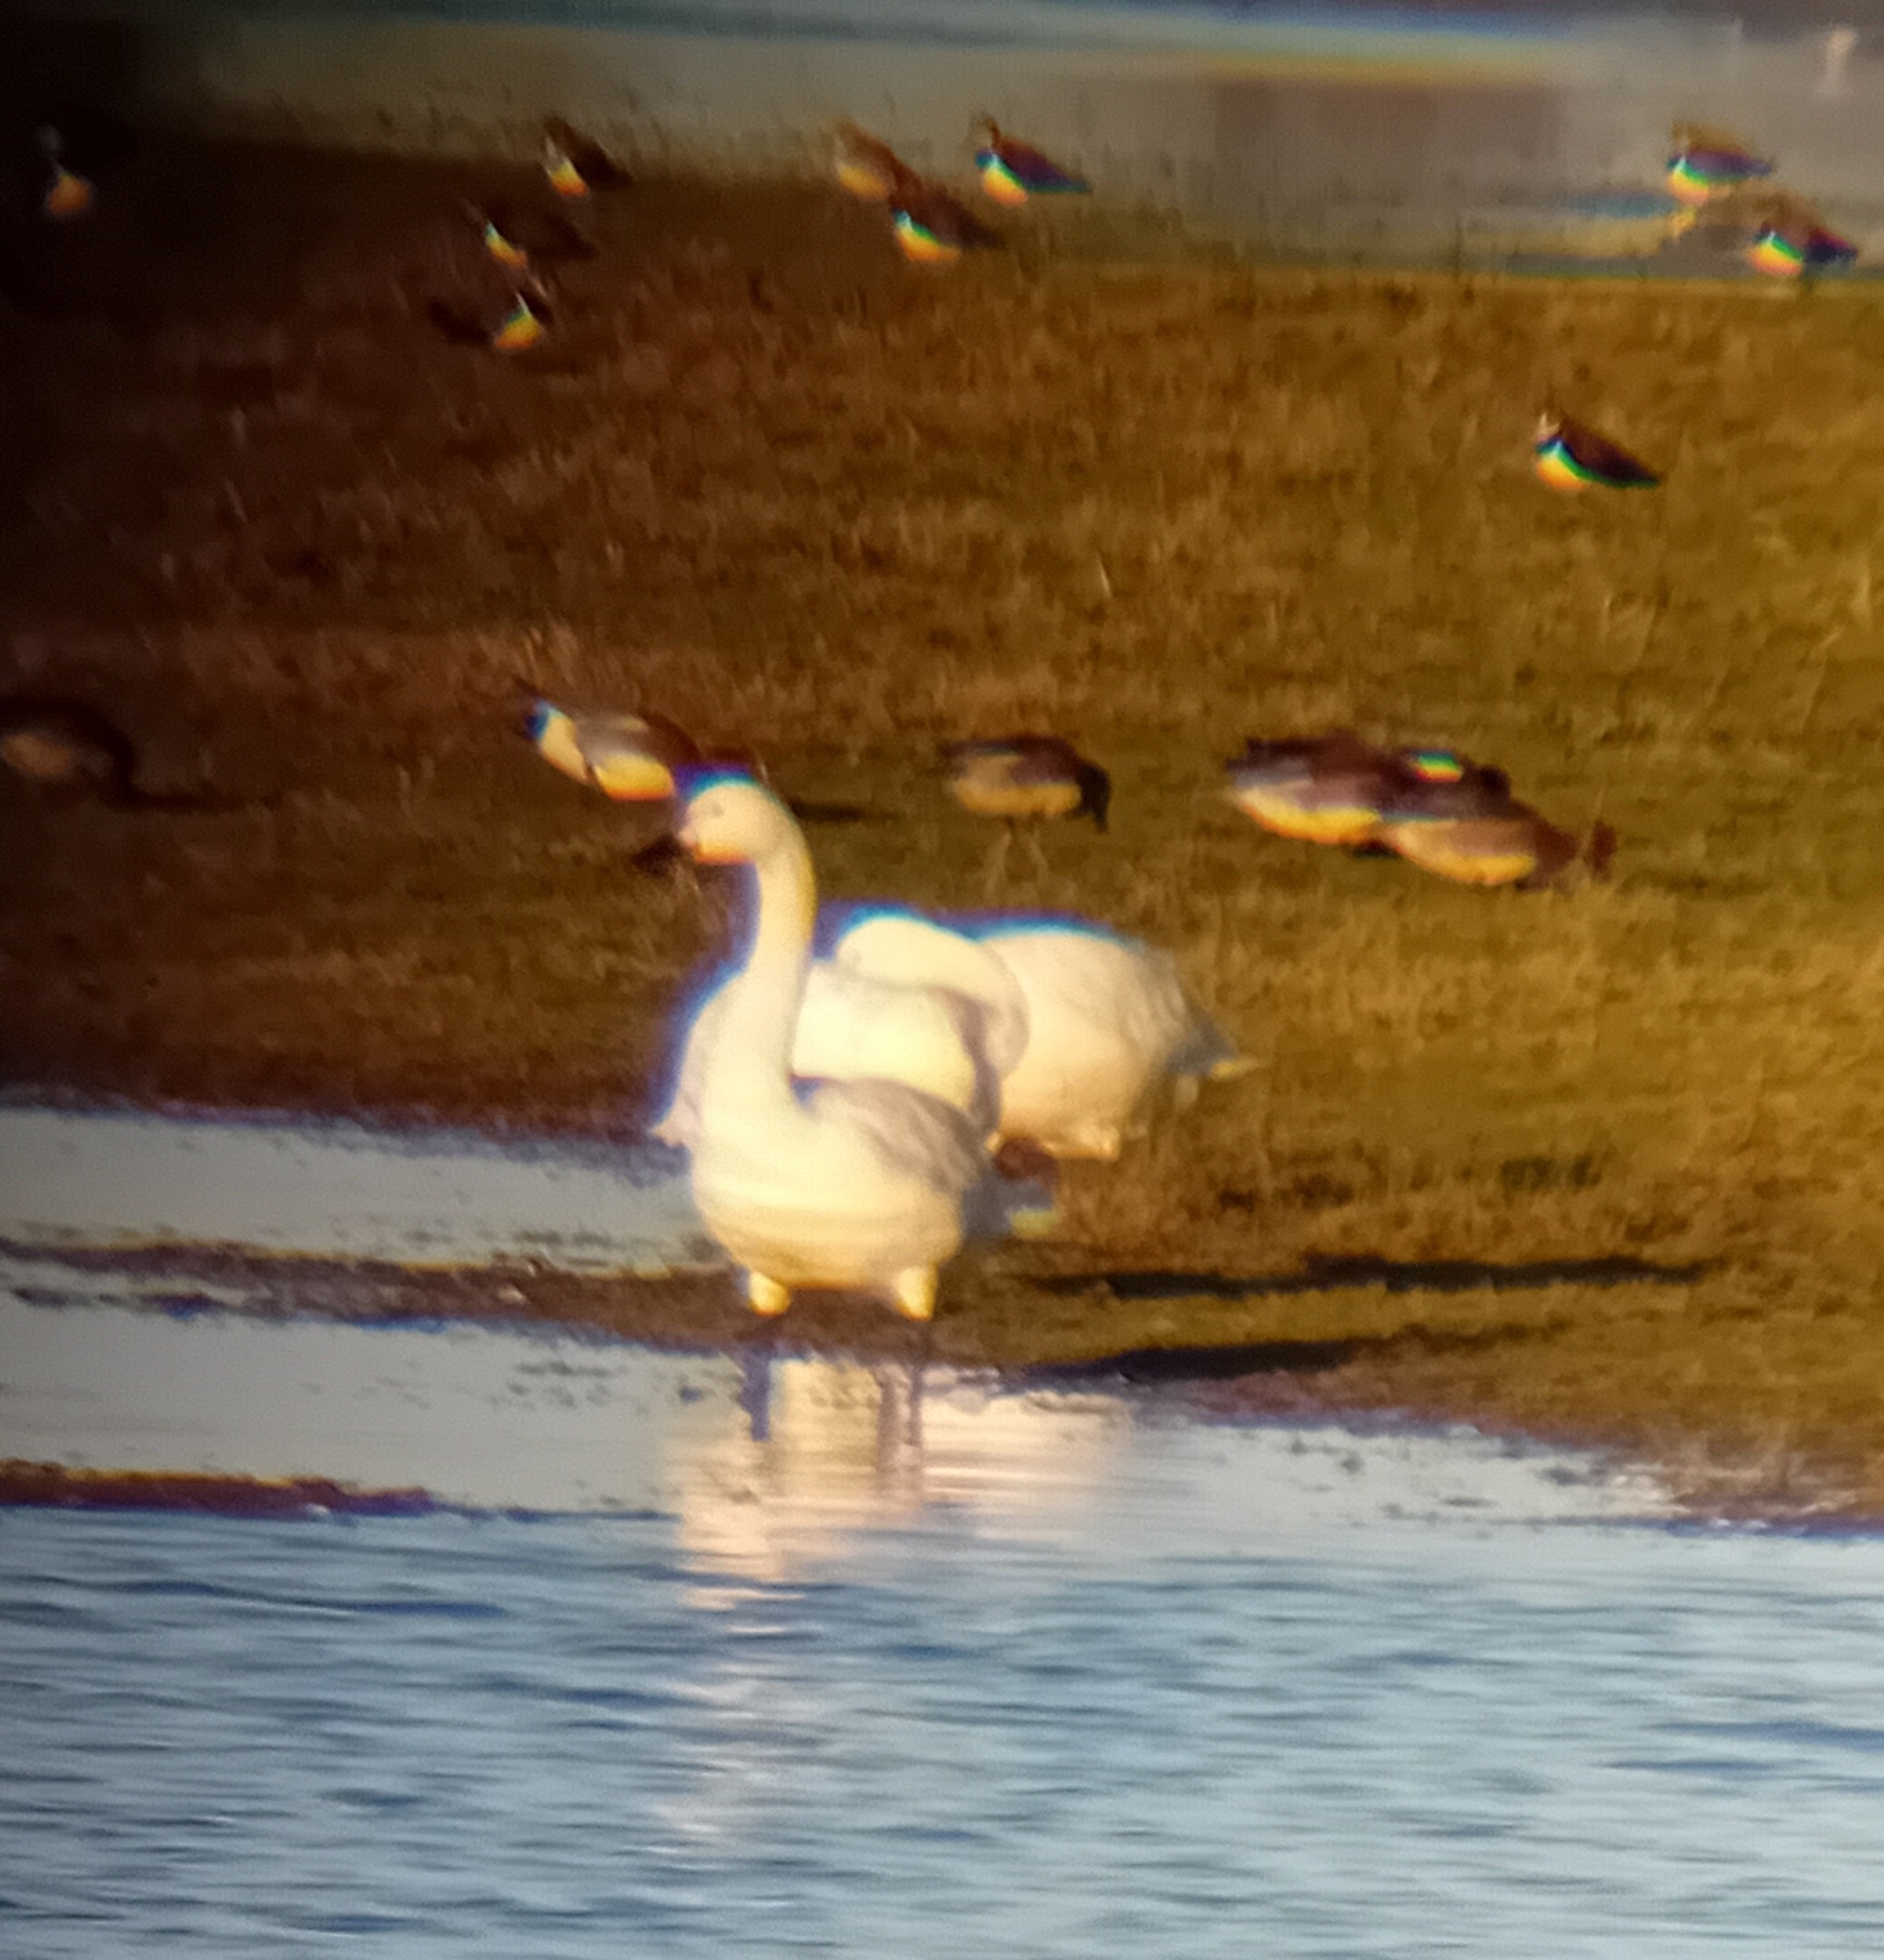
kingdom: Animalia
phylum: Chordata
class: Aves
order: Anseriformes
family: Anatidae
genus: Cygnus
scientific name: Cygnus columbianus
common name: Tundra swan
